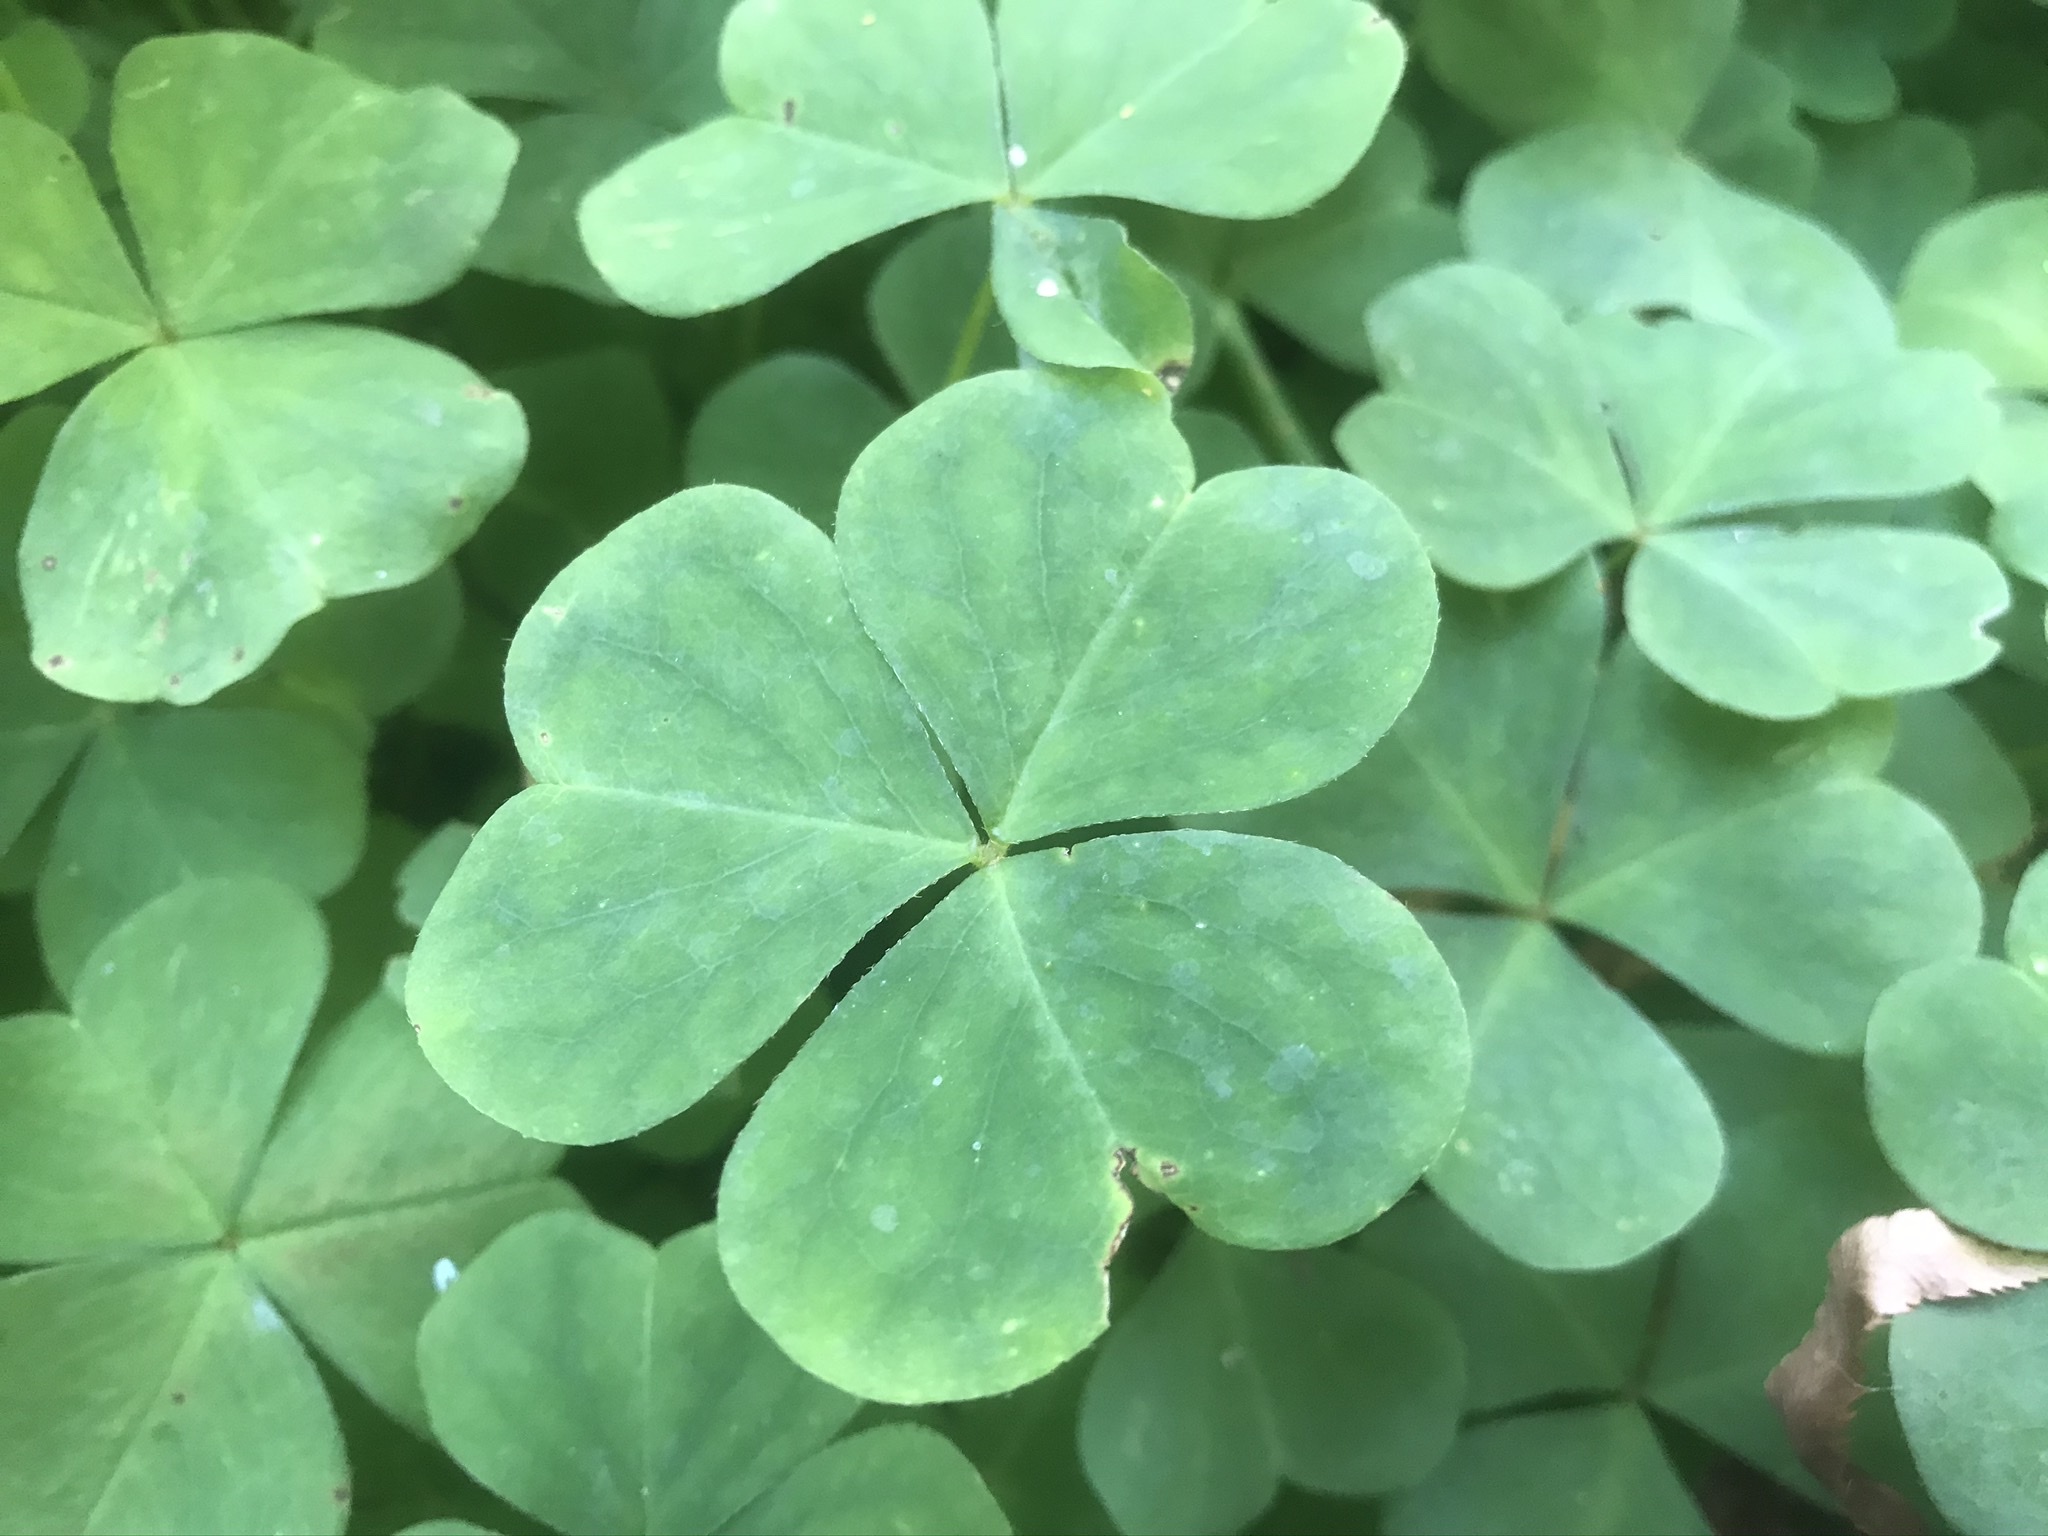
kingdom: Plantae
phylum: Tracheophyta
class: Magnoliopsida
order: Oxalidales
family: Oxalidaceae
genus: Oxalis
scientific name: Oxalis oregana
